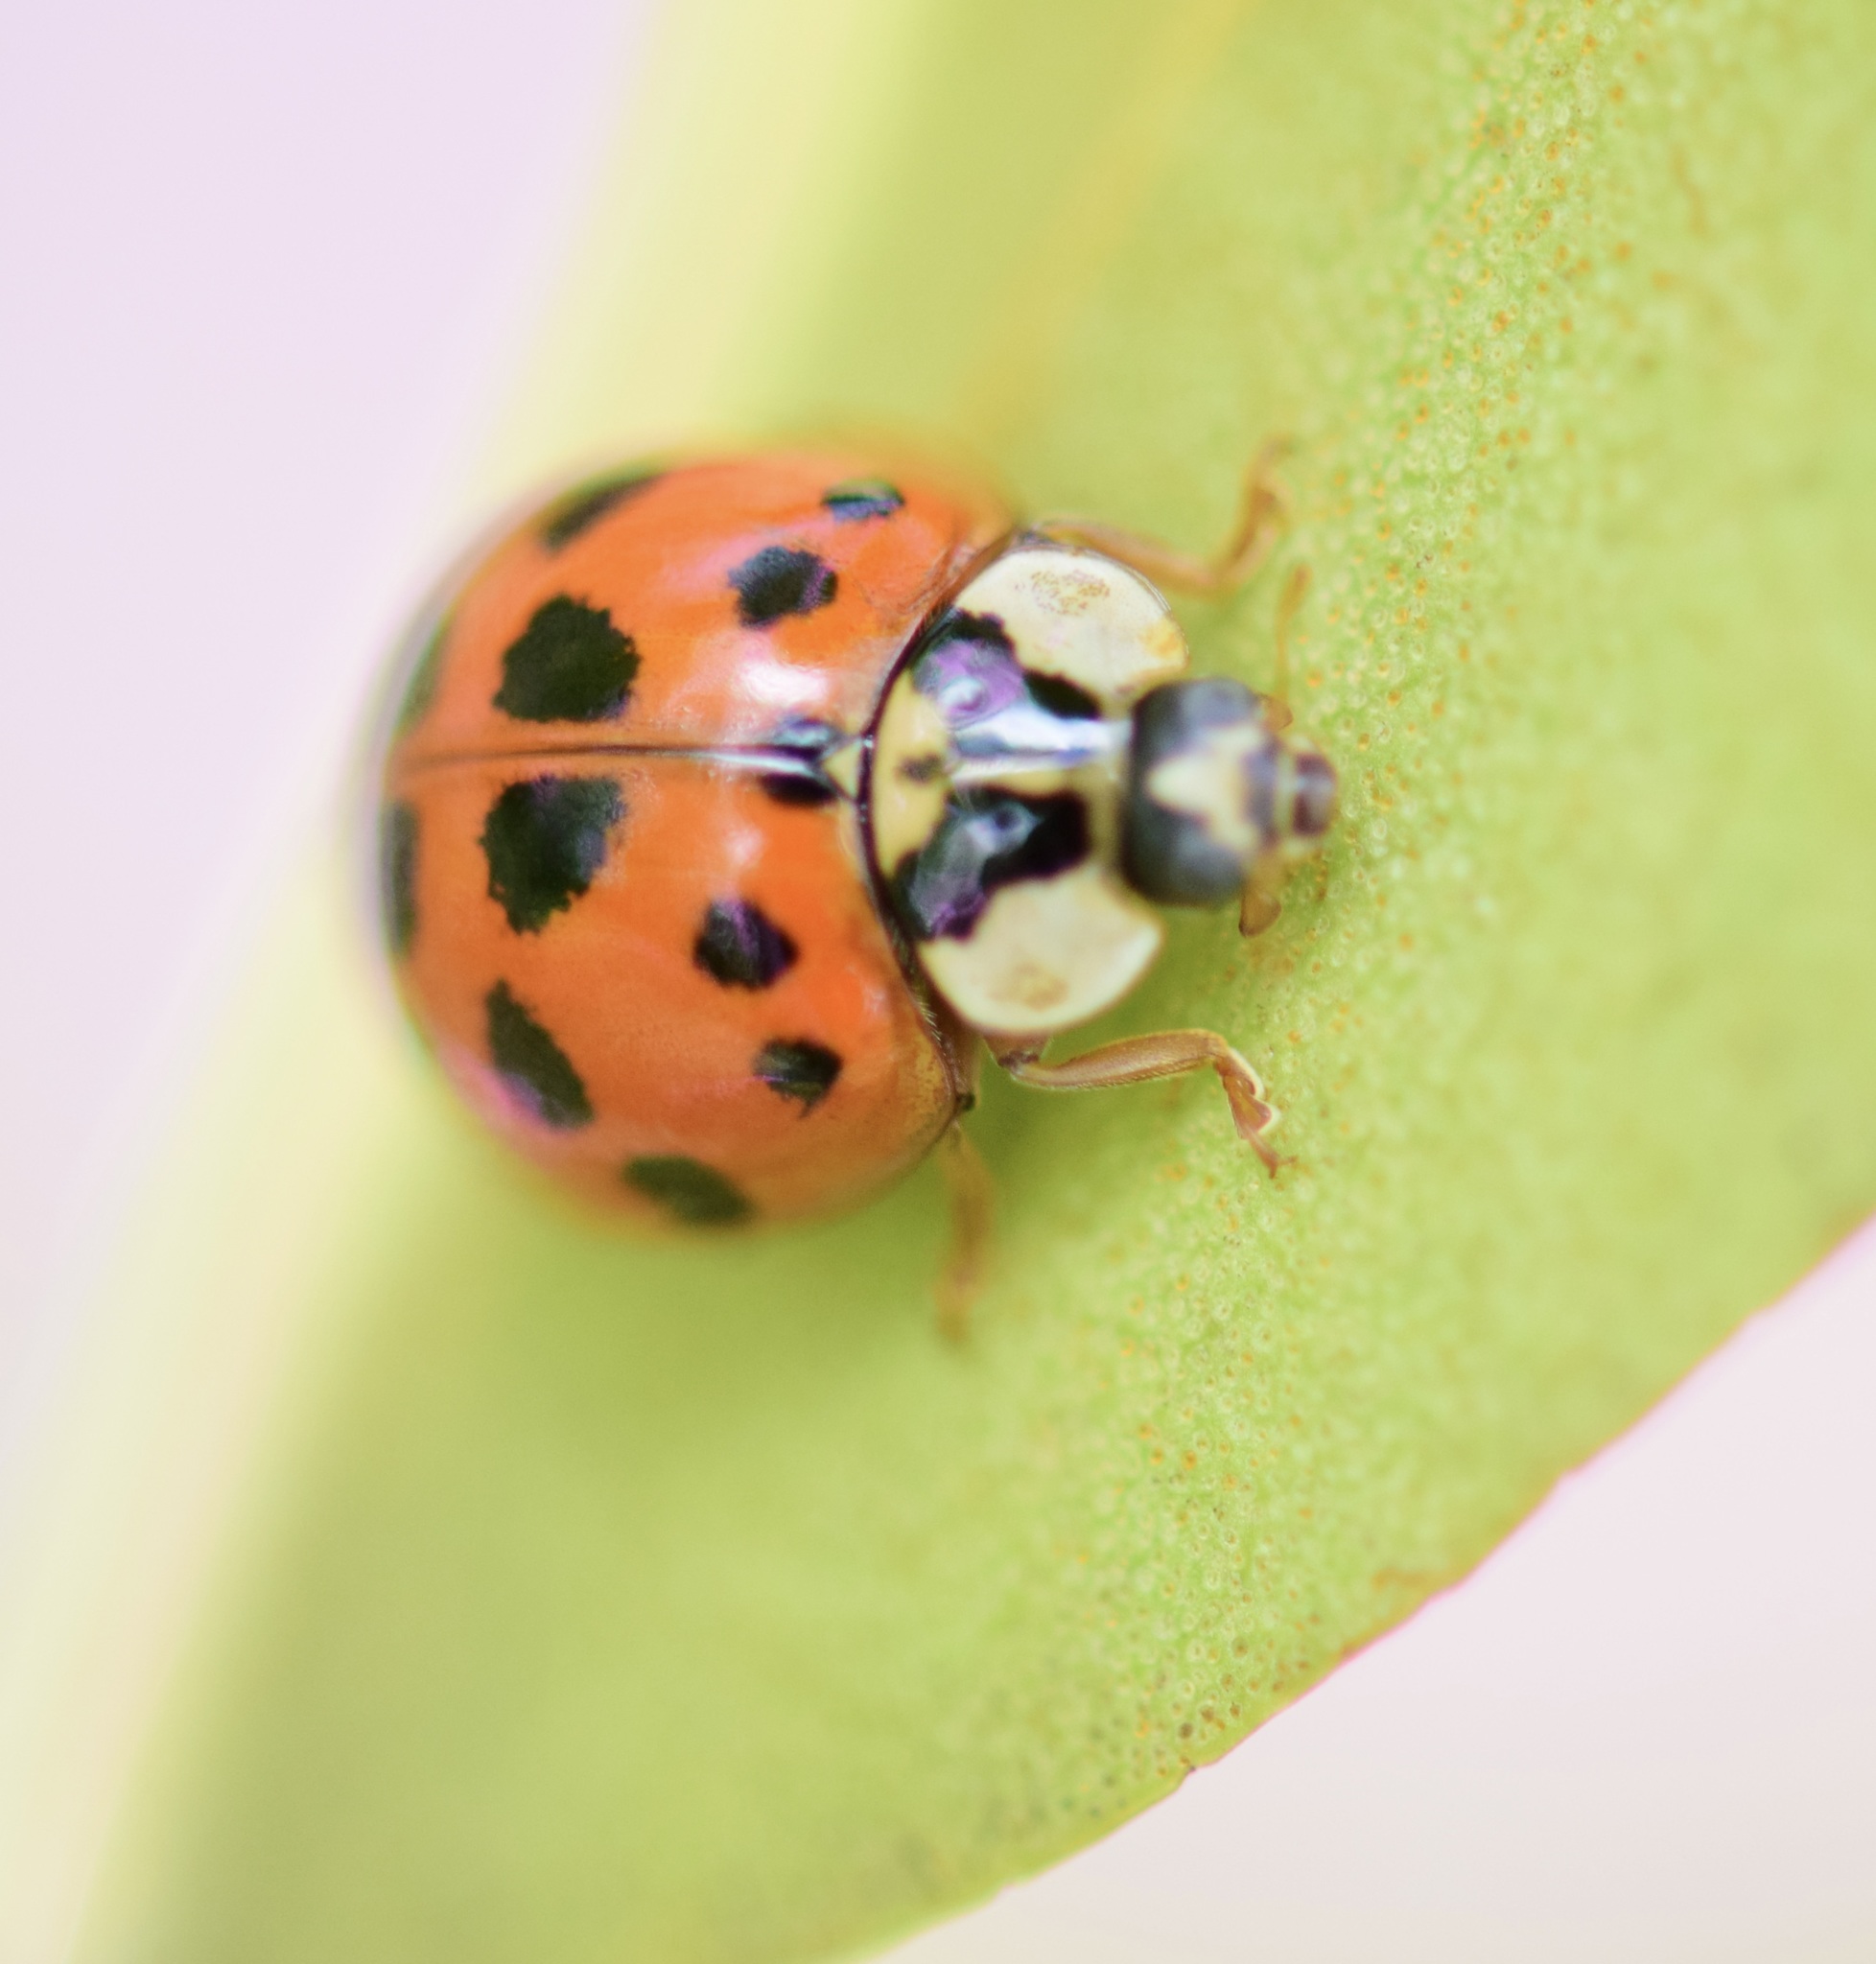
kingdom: Animalia
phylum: Arthropoda
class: Insecta
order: Coleoptera
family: Coccinellidae
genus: Harmonia
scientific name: Harmonia axyridis
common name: Harlequin ladybird
